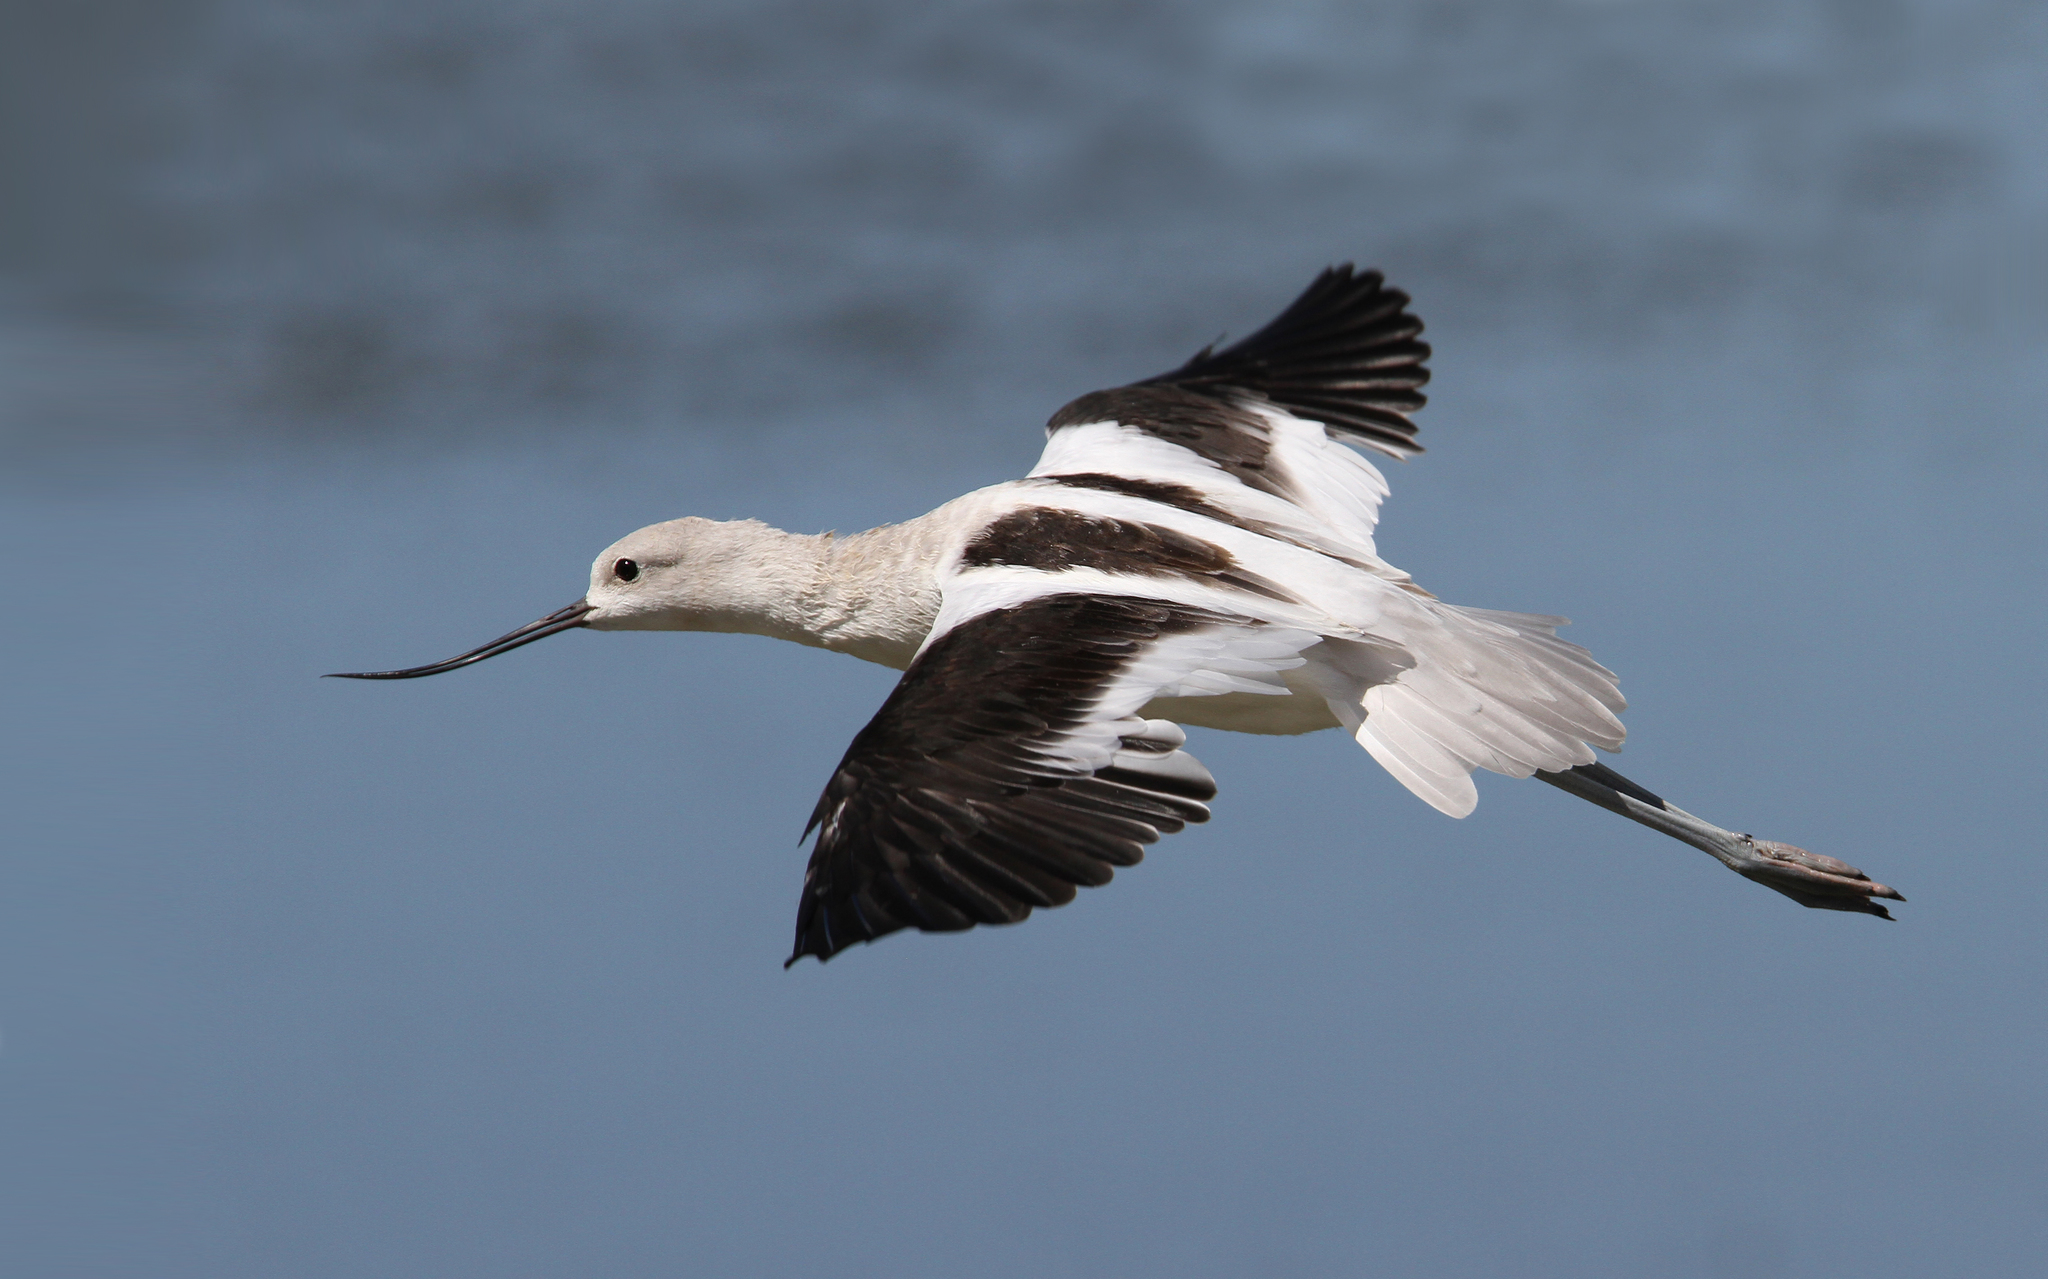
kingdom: Animalia
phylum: Chordata
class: Aves
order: Charadriiformes
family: Recurvirostridae
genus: Recurvirostra
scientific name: Recurvirostra americana
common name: American avocet
